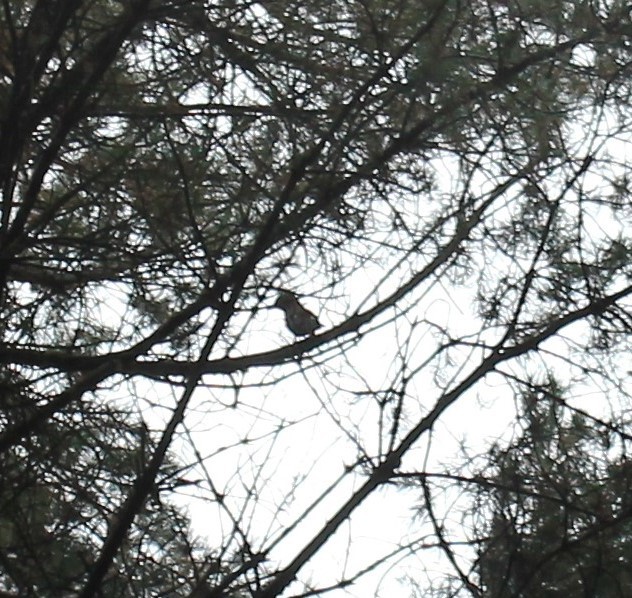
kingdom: Animalia
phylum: Chordata
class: Aves
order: Passeriformes
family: Corvidae
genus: Garrulus
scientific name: Garrulus glandarius
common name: Eurasian jay
